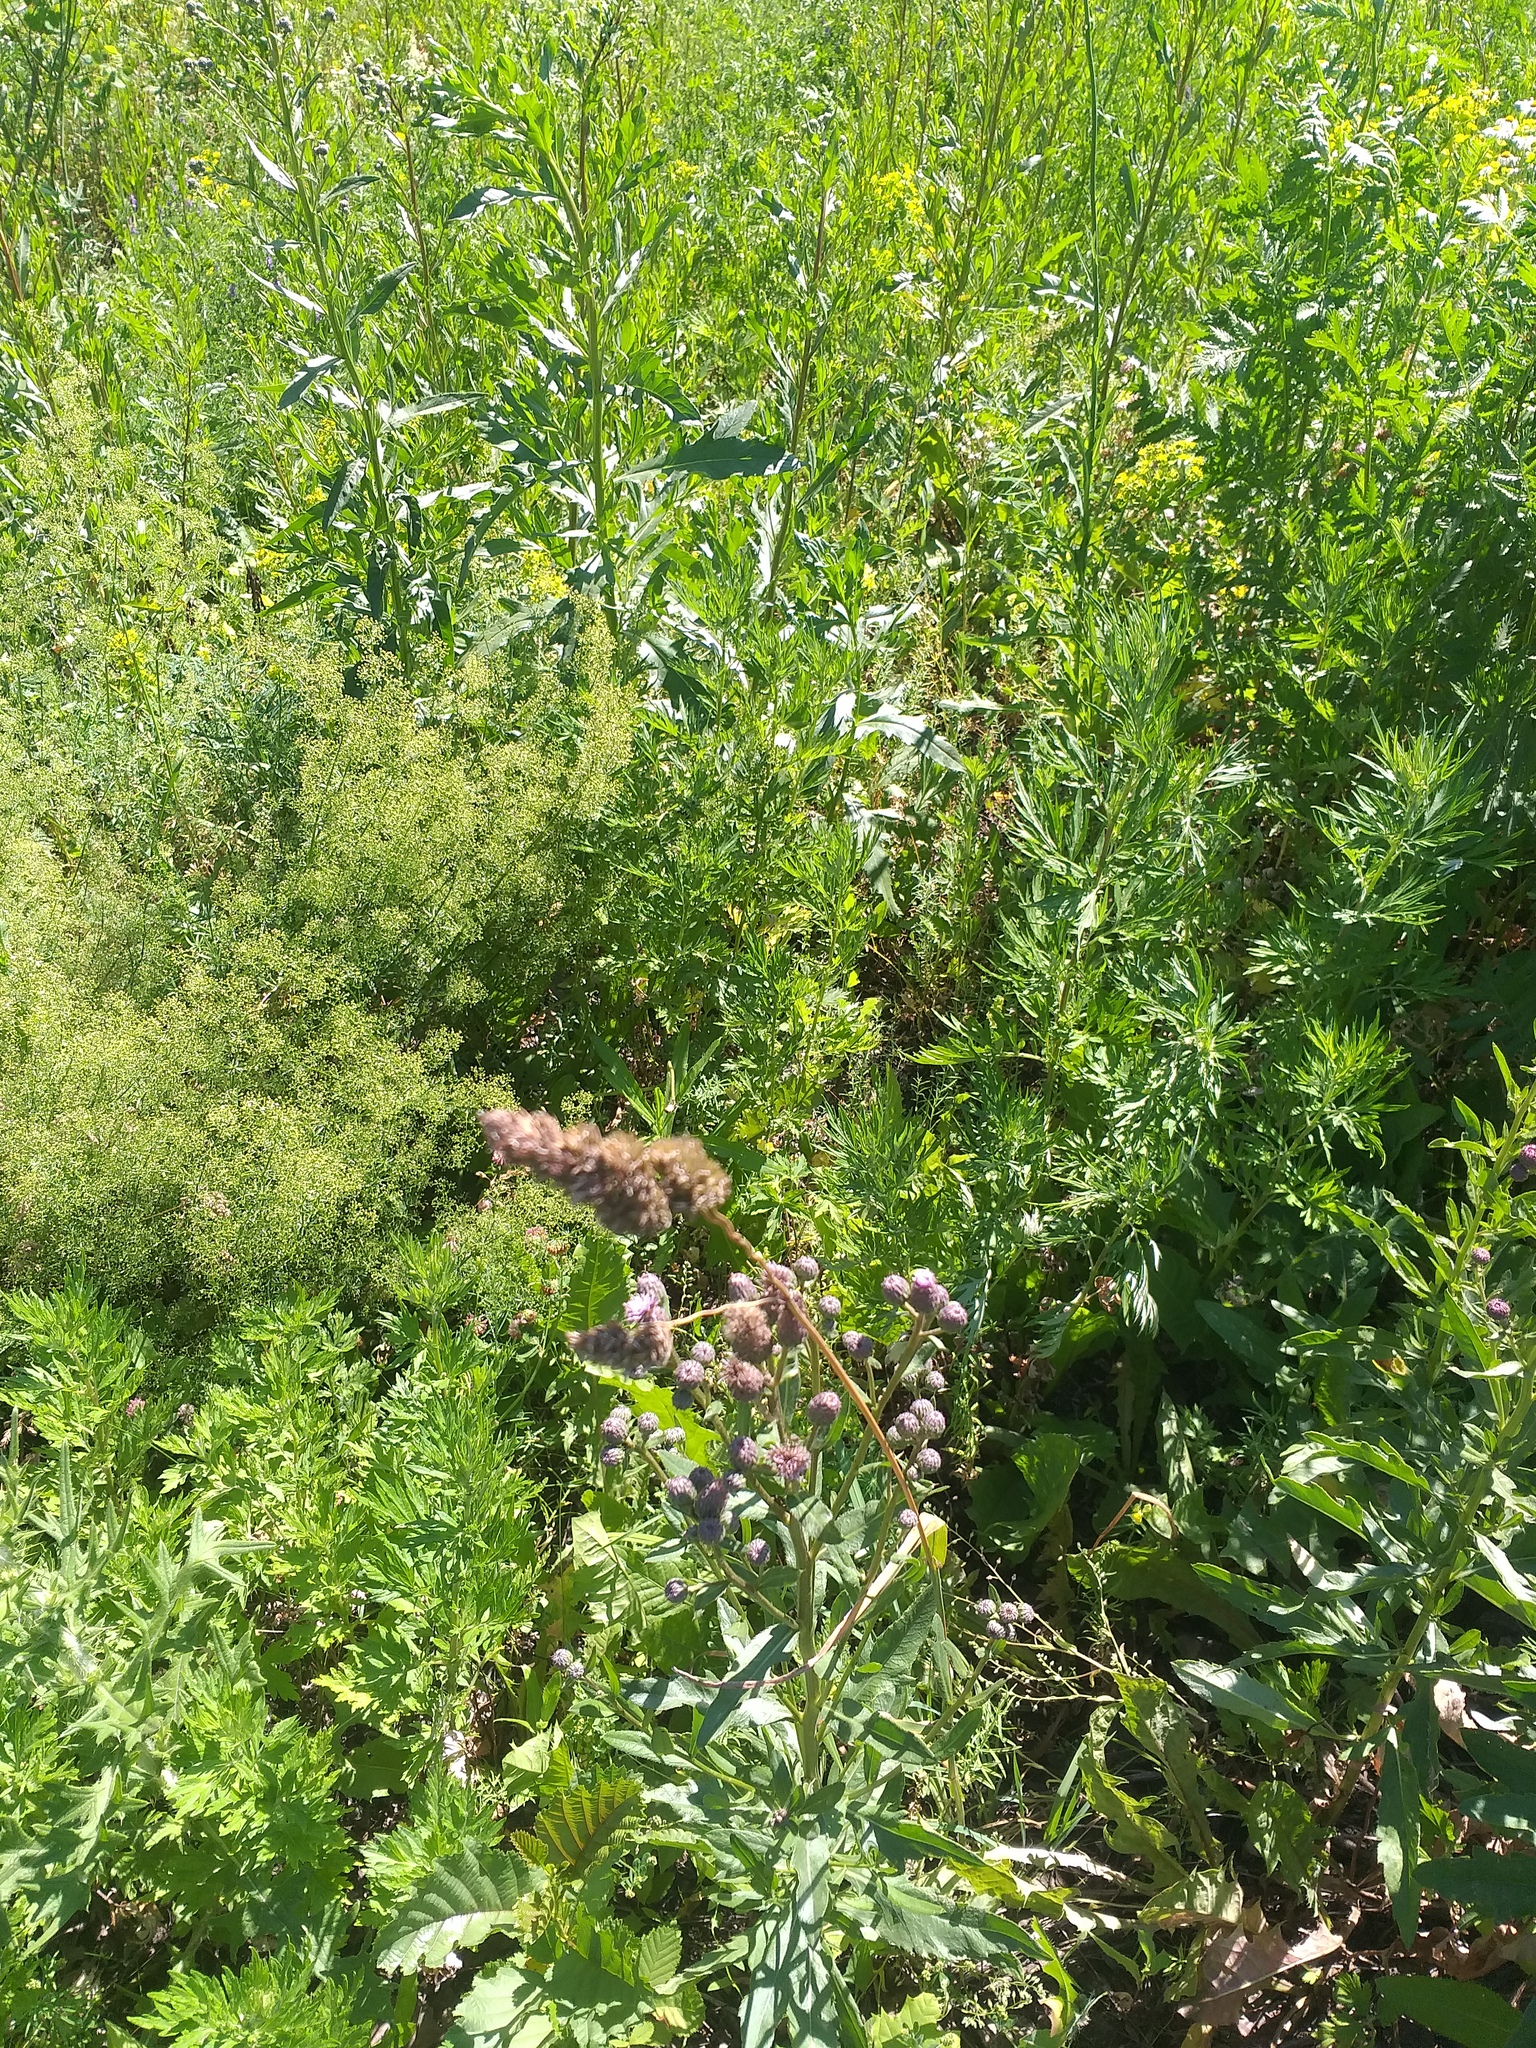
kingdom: Plantae
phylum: Tracheophyta
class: Liliopsida
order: Poales
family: Poaceae
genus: Dactylis
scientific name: Dactylis glomerata
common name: Orchardgrass
